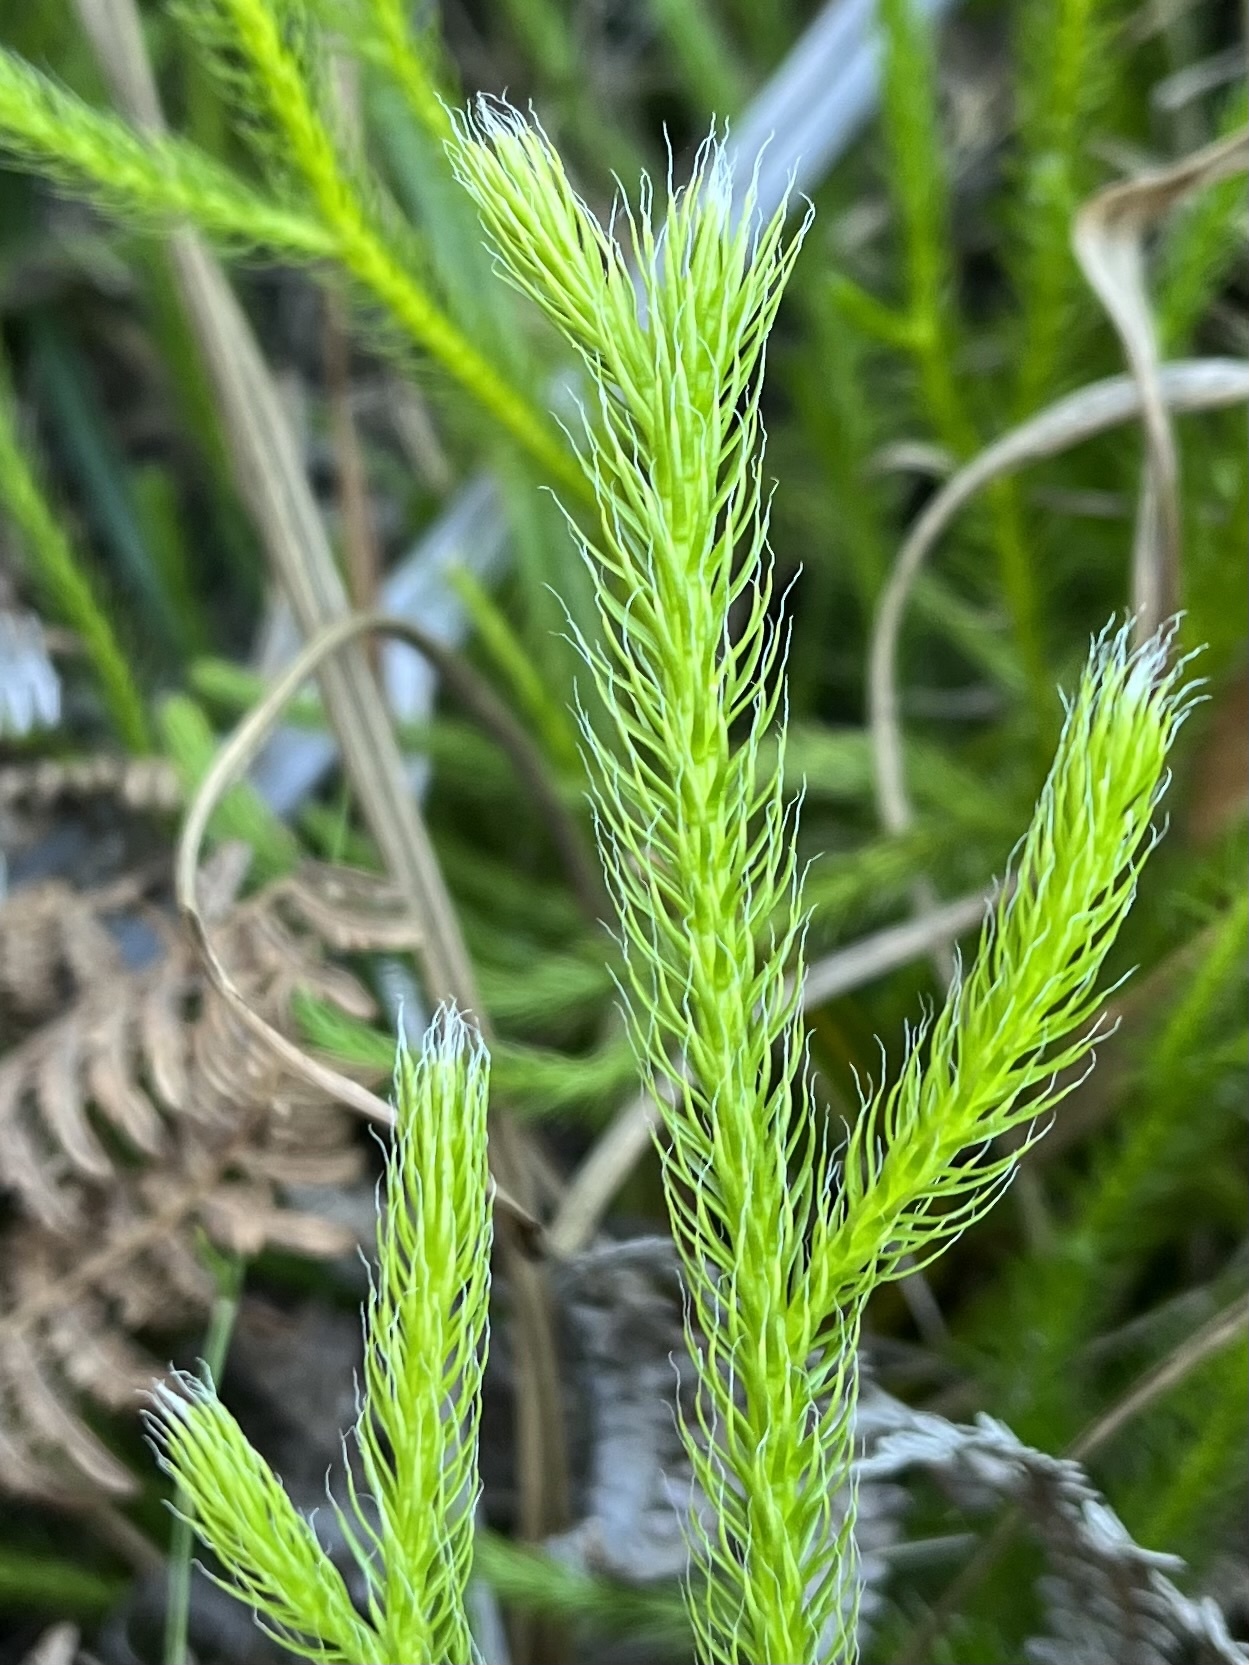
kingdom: Plantae
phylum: Tracheophyta
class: Lycopodiopsida
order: Lycopodiales
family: Lycopodiaceae
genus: Lycopodium
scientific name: Lycopodium clavatum
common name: Stag's-horn clubmoss
